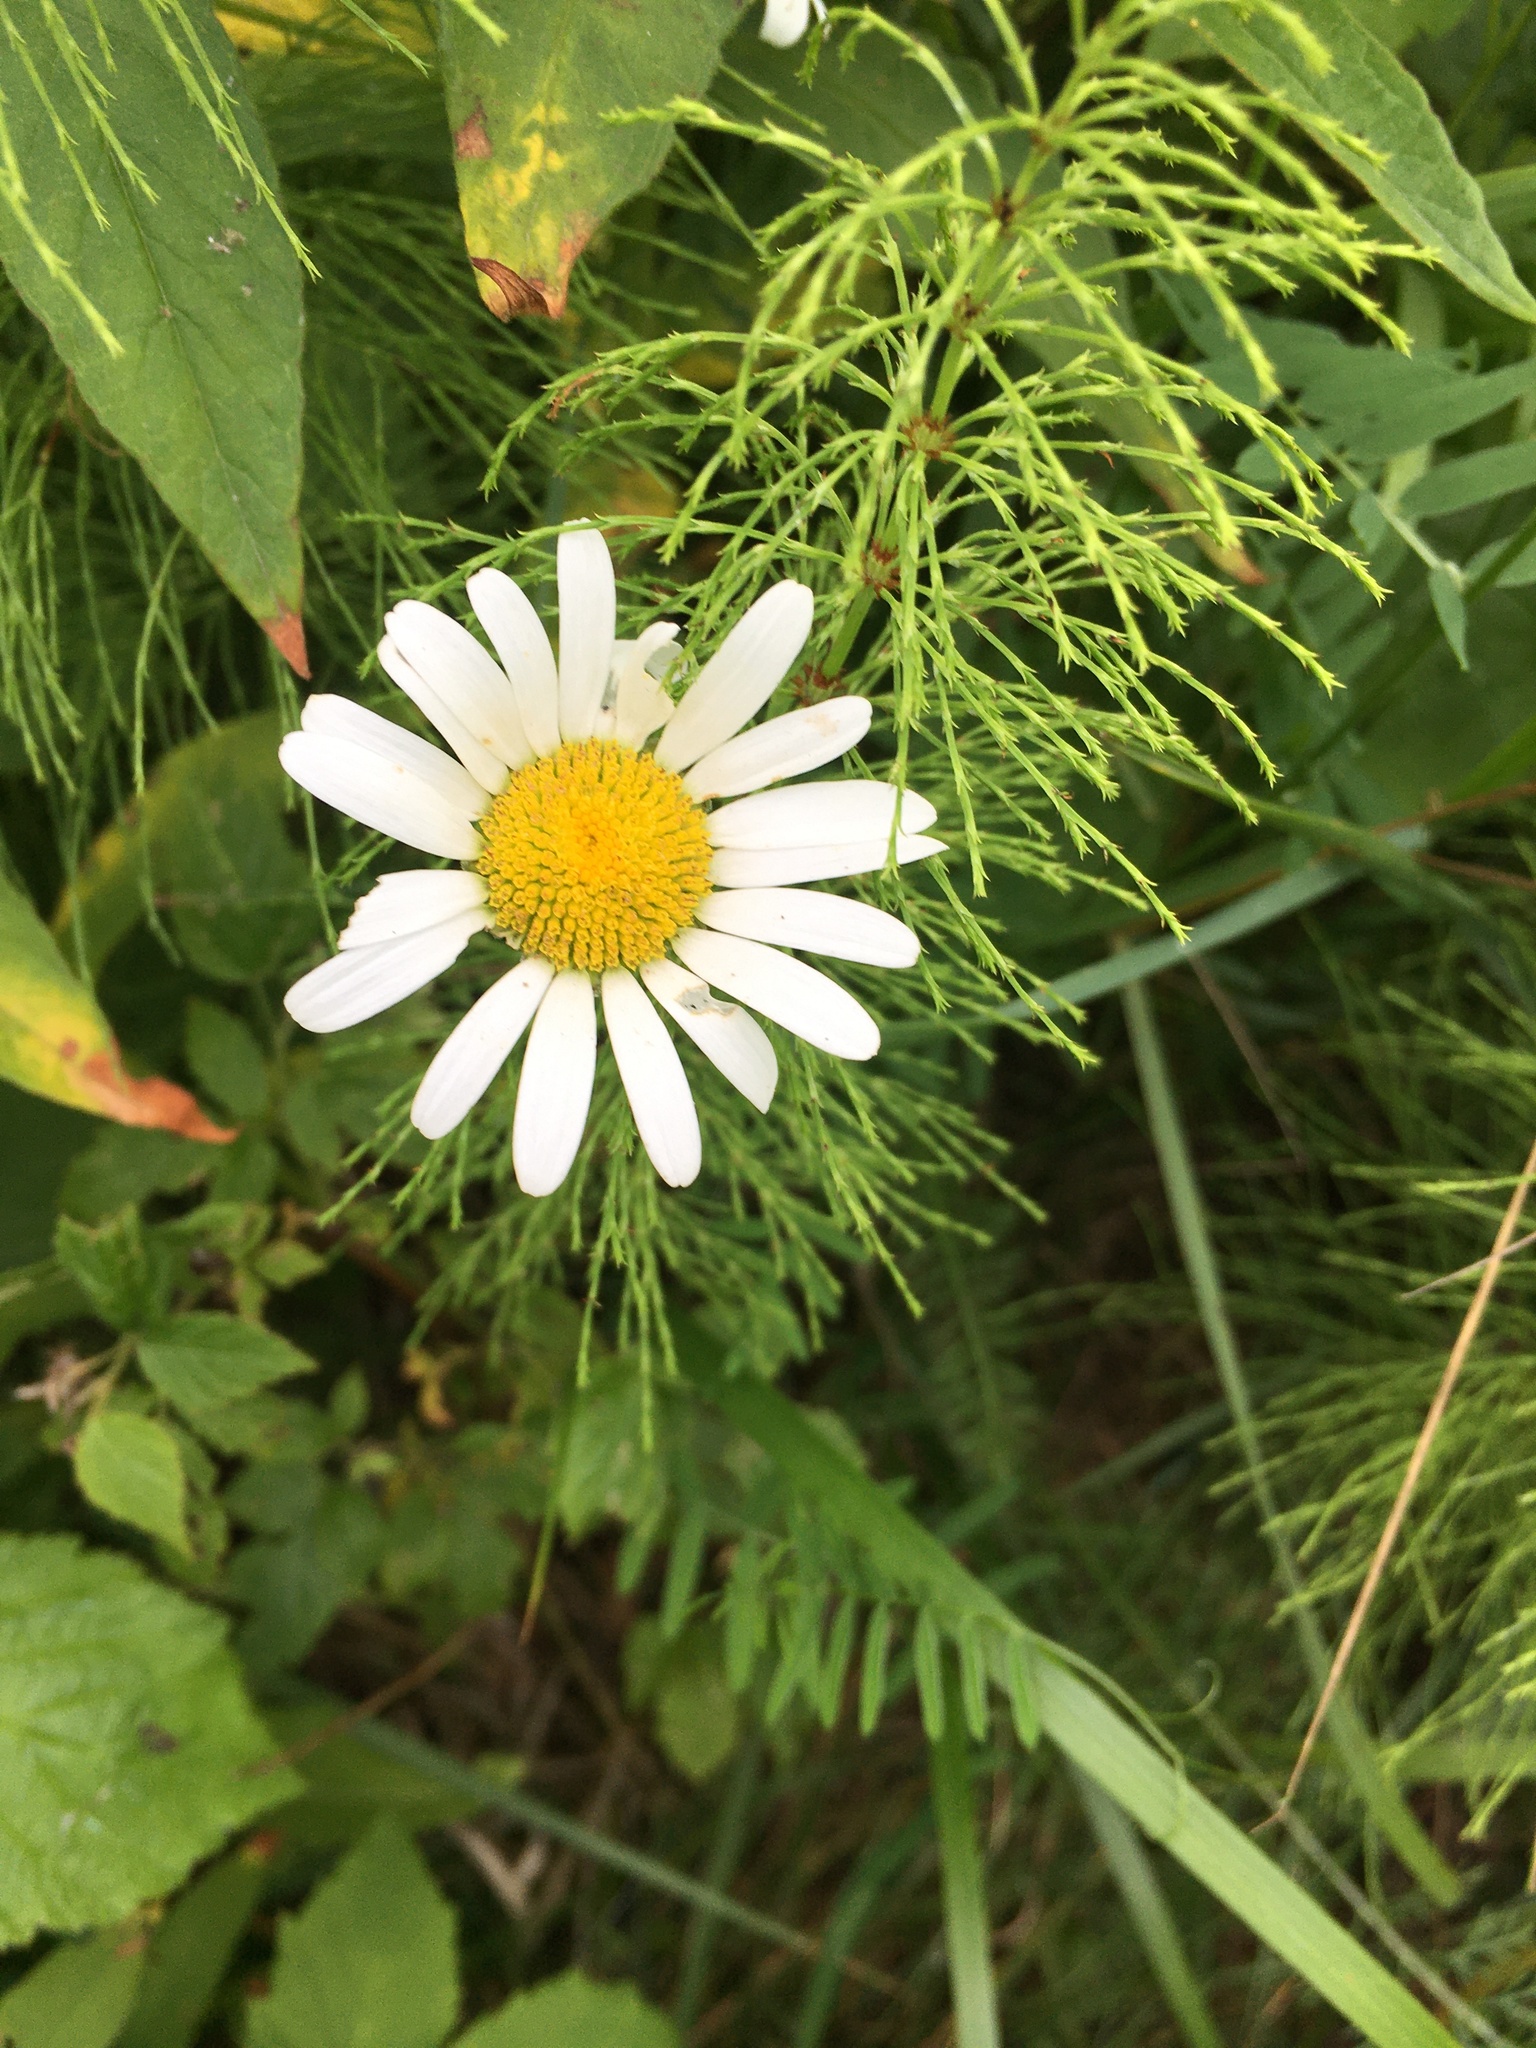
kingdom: Plantae
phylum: Tracheophyta
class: Magnoliopsida
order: Asterales
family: Asteraceae
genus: Leucanthemum
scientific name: Leucanthemum vulgare
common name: Oxeye daisy
